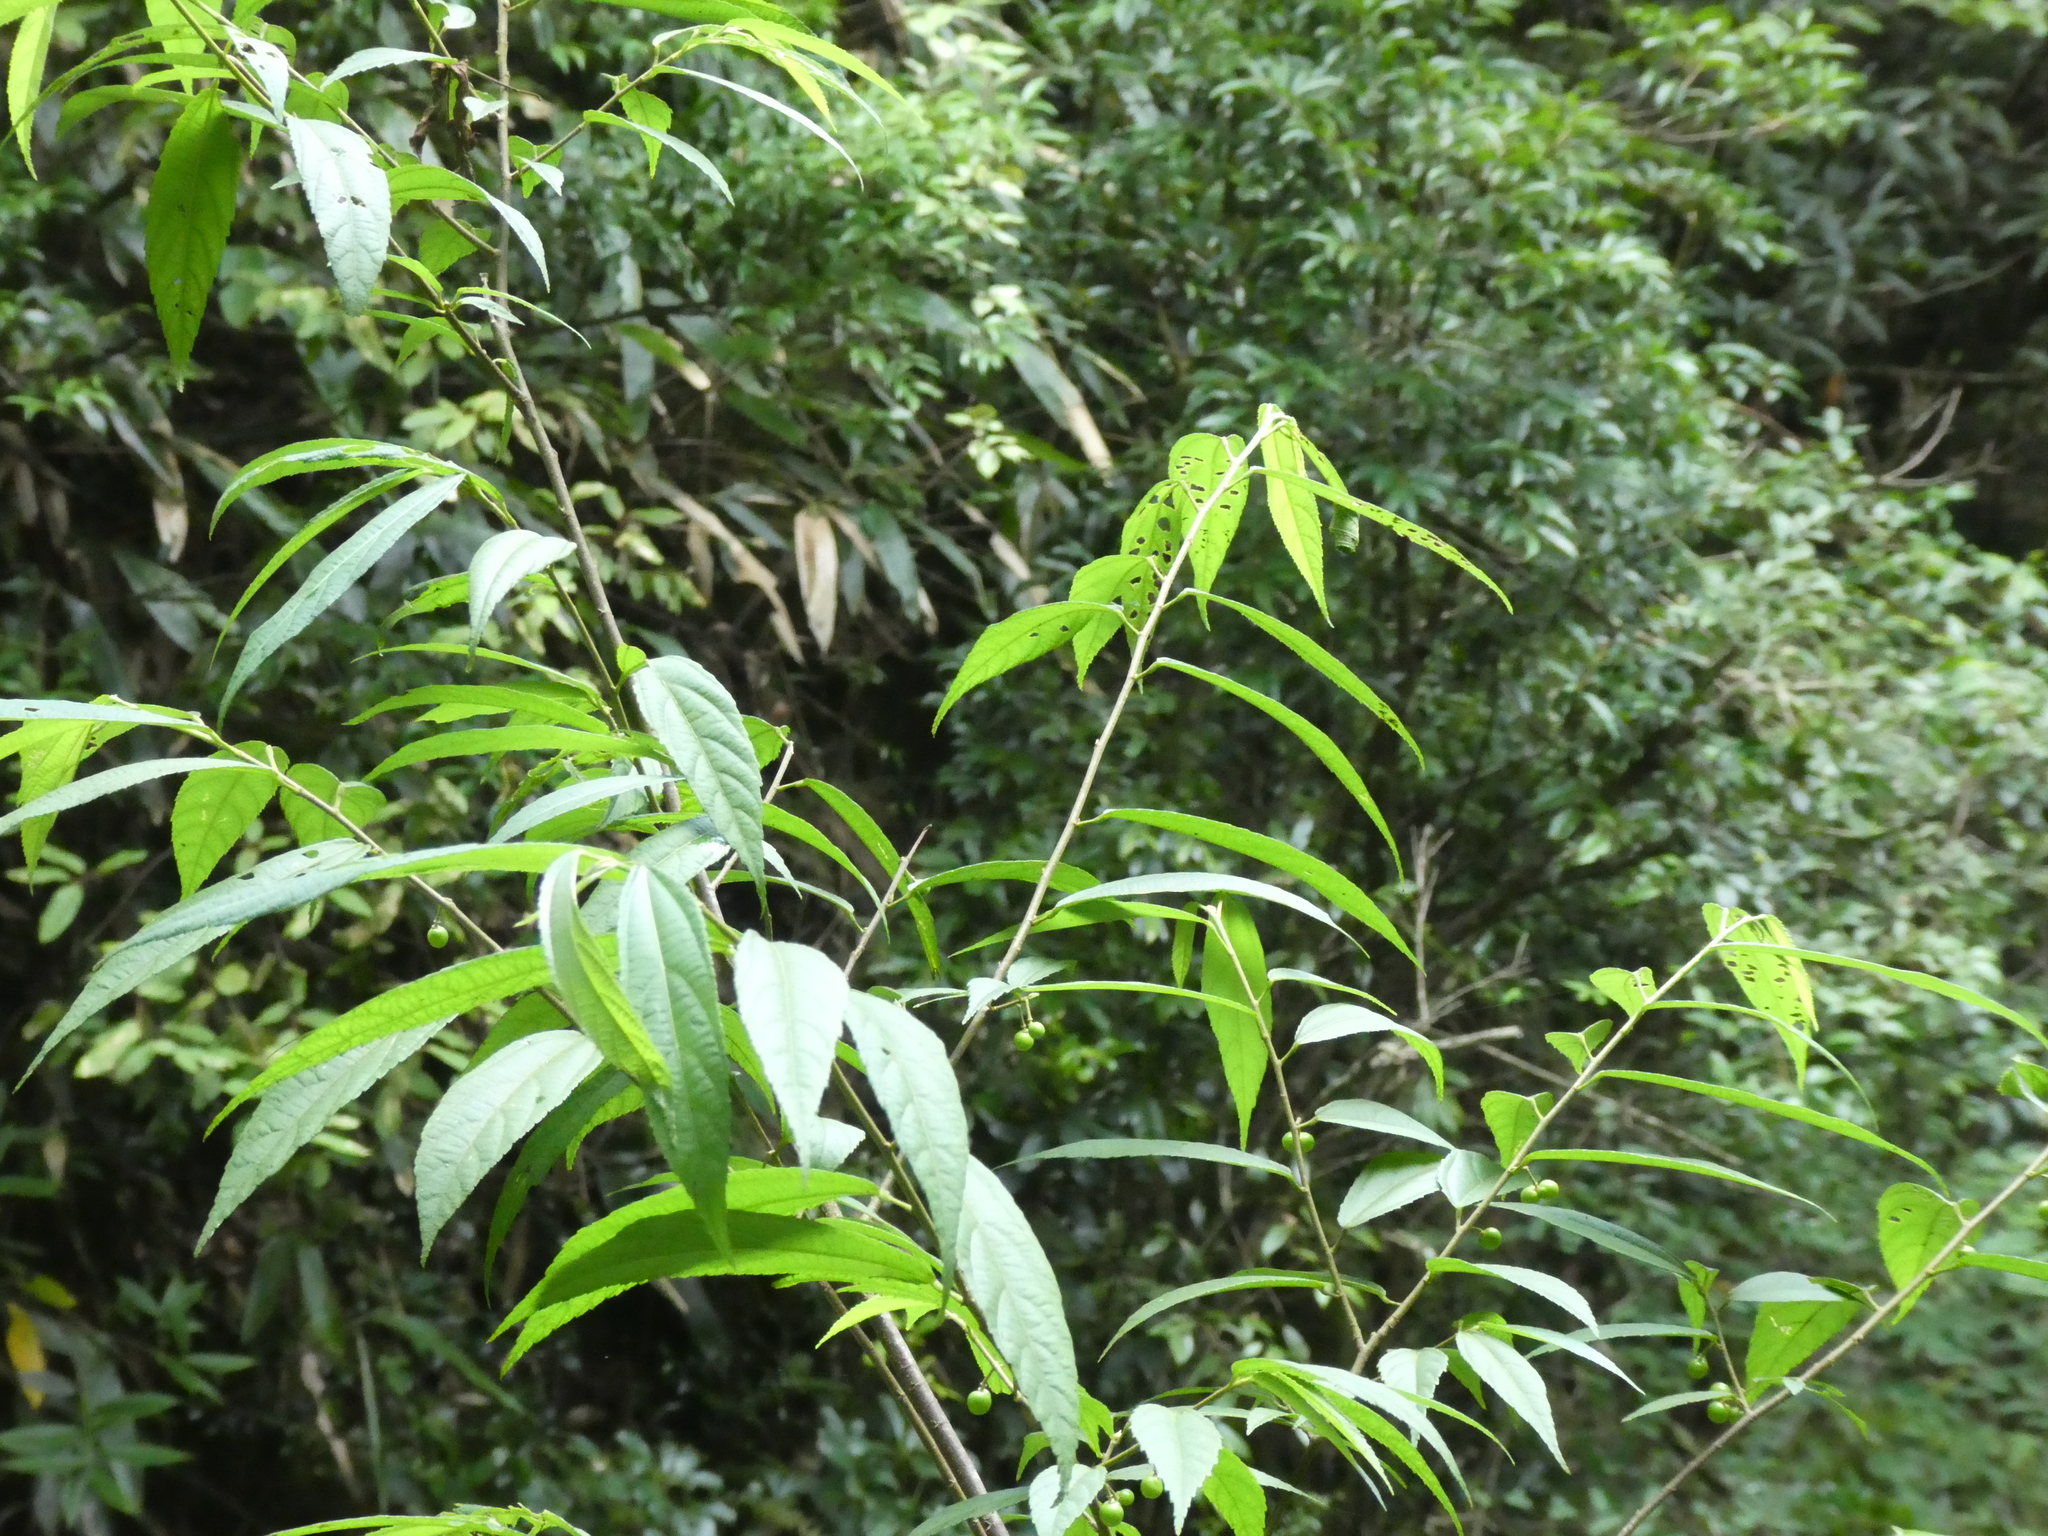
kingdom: Plantae
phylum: Tracheophyta
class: Magnoliopsida
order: Malvales
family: Malvaceae
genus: Grewia
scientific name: Grewia henryi
